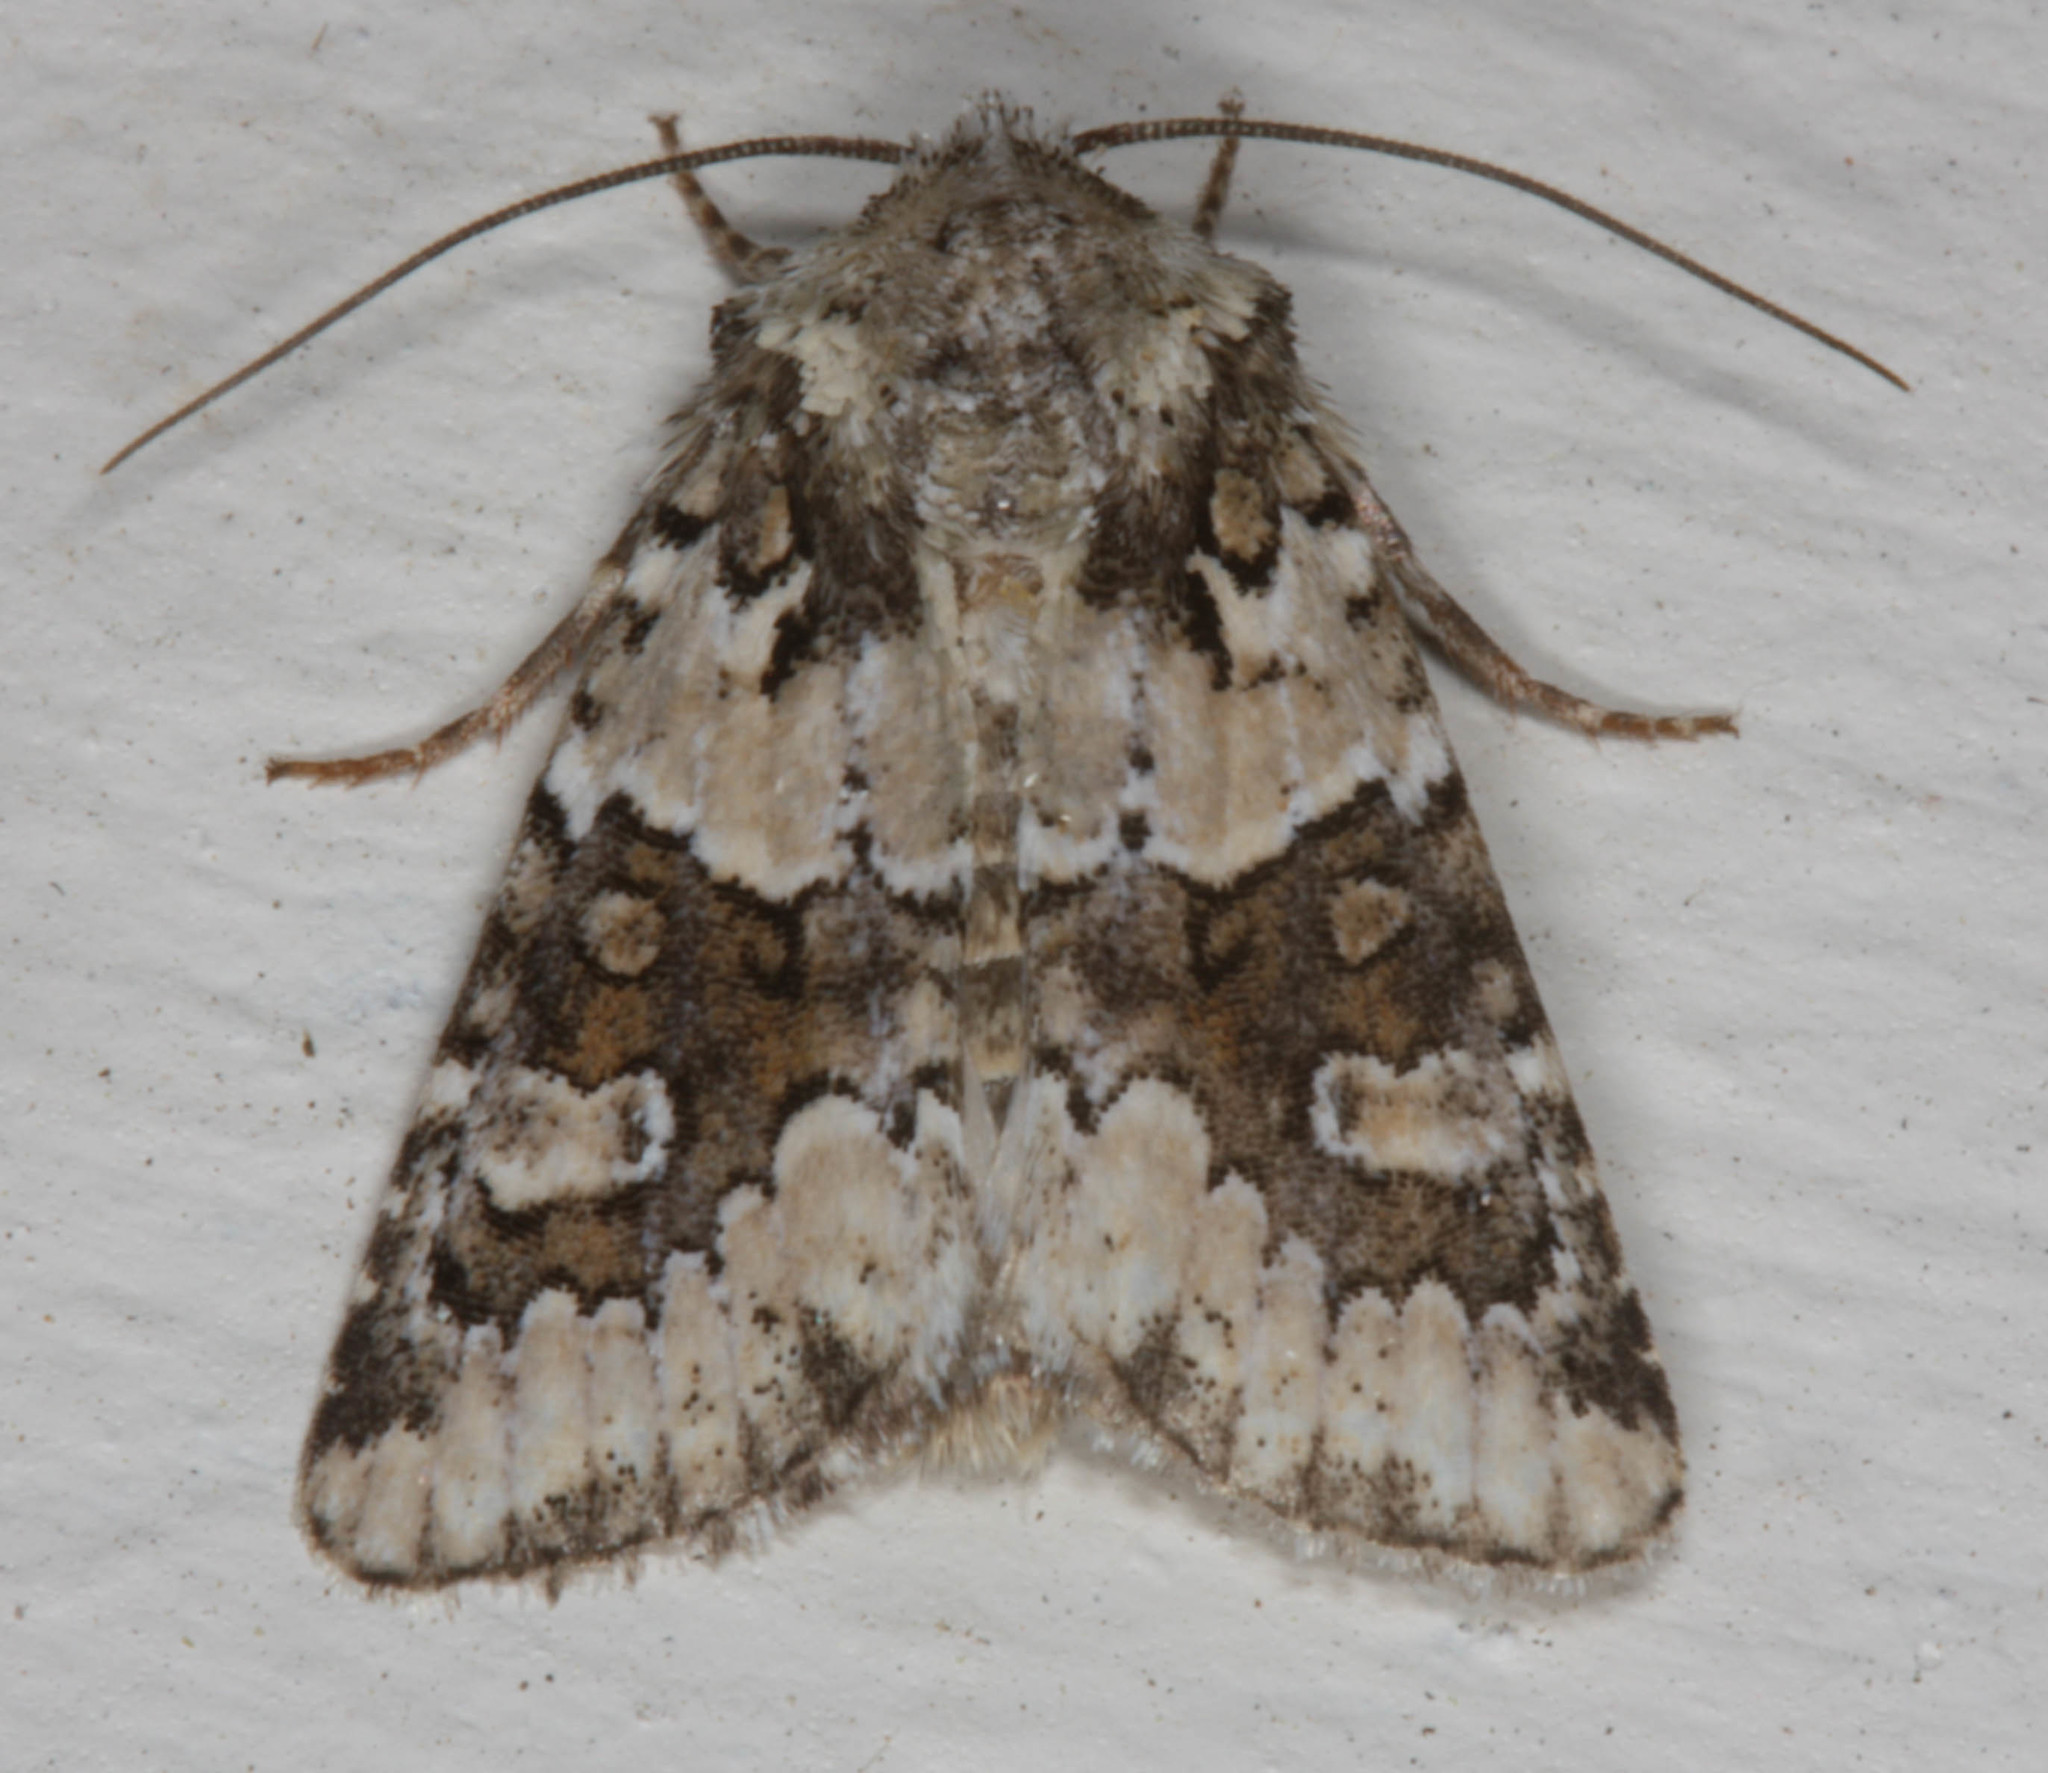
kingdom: Animalia
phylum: Arthropoda
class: Insecta
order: Lepidoptera
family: Noctuidae
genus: Lacinipolia
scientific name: Lacinipolia strigicollis
